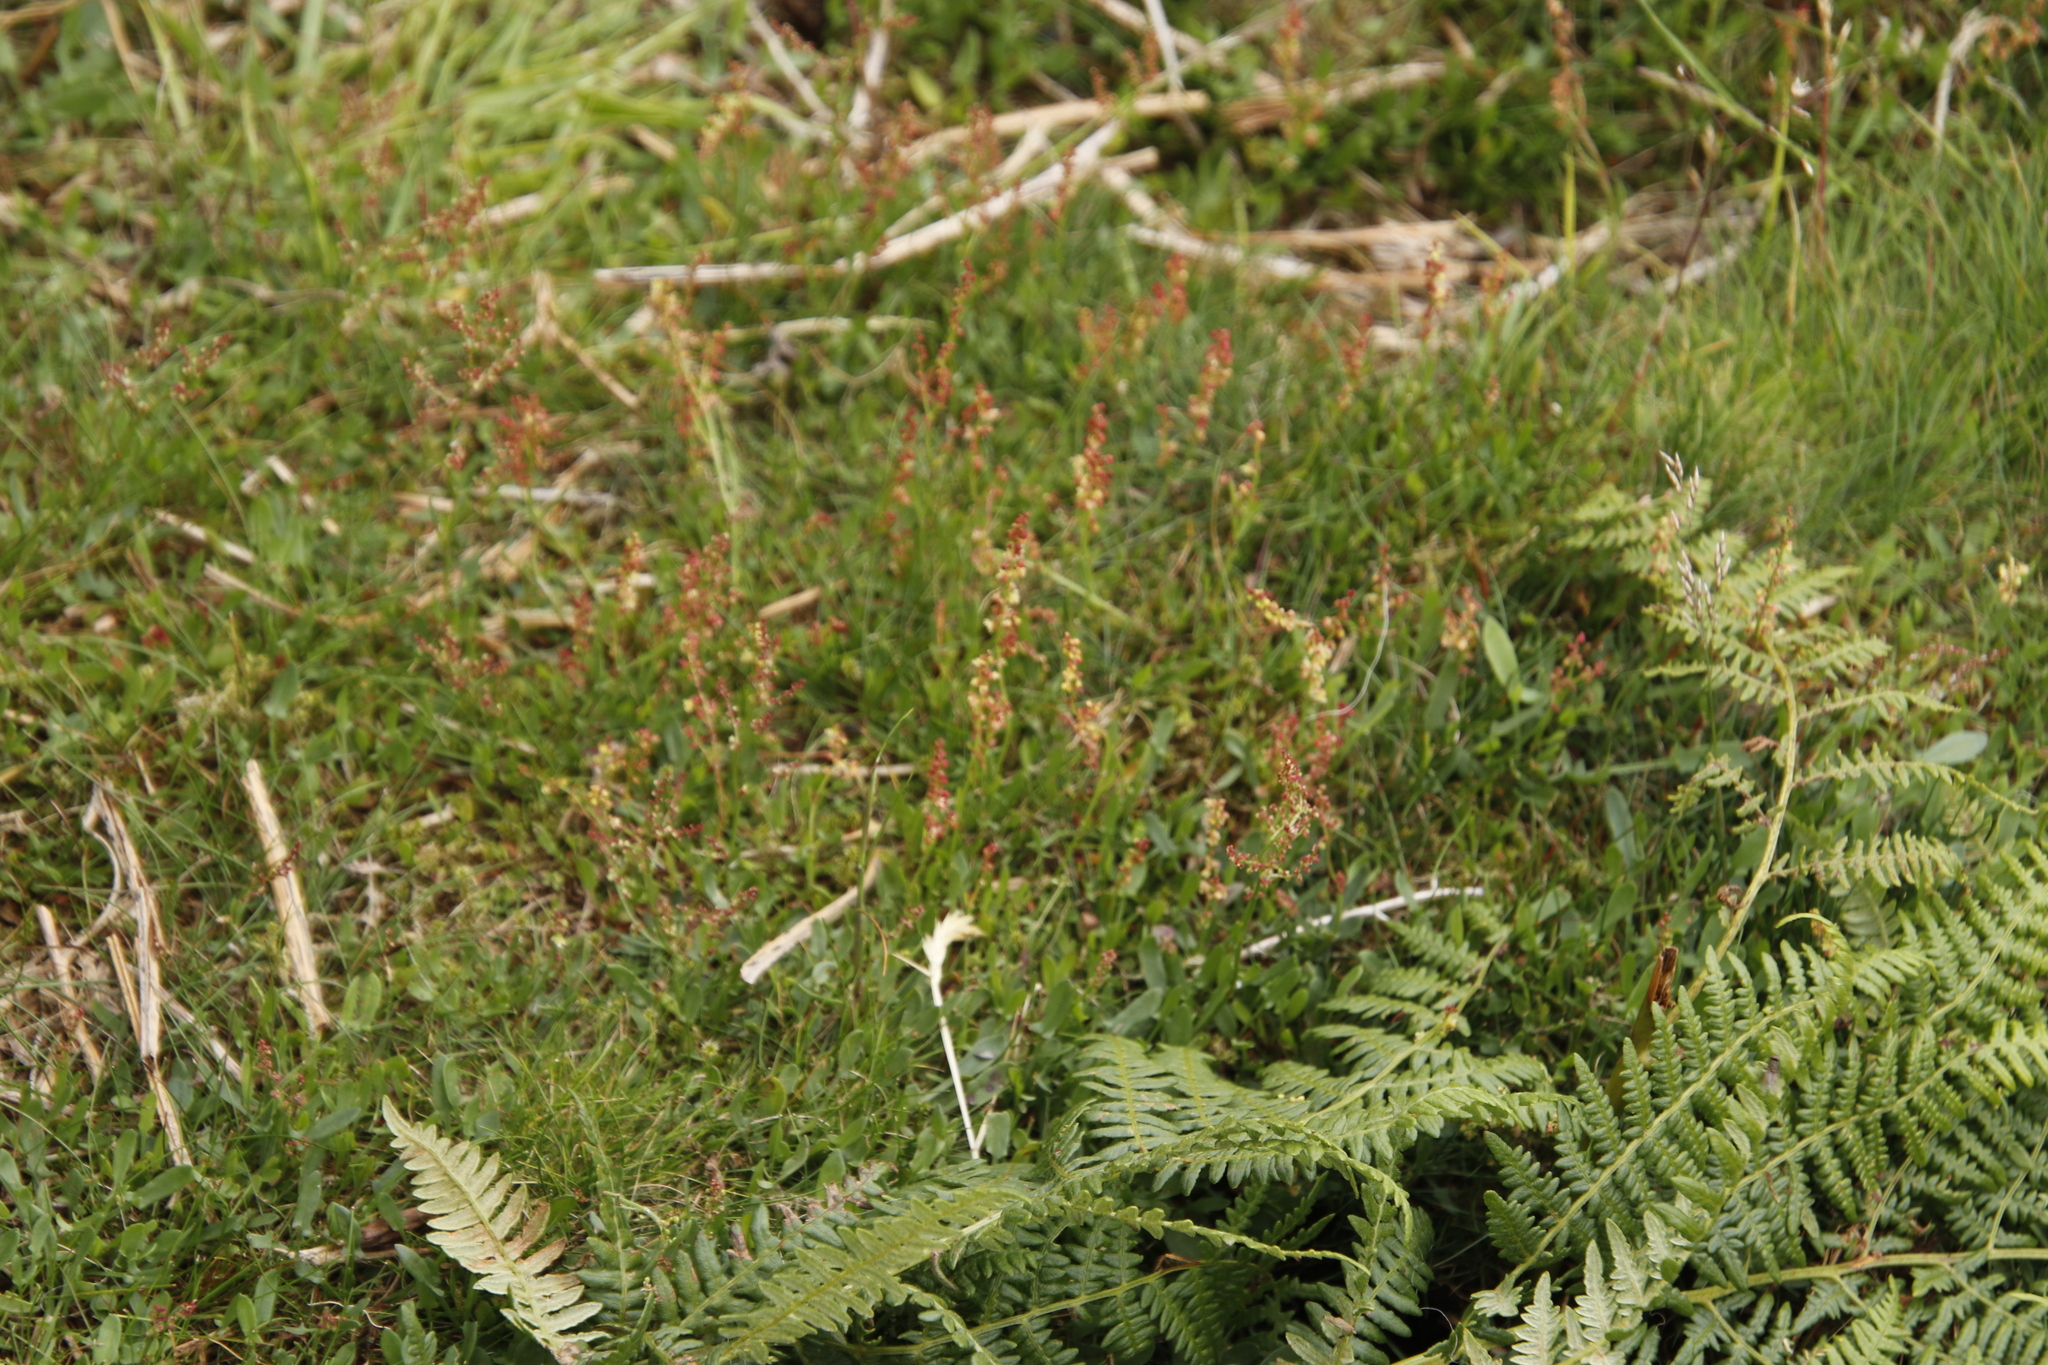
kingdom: Plantae
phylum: Tracheophyta
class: Magnoliopsida
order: Caryophyllales
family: Polygonaceae
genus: Rumex
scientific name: Rumex acetosella
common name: Common sheep sorrel
